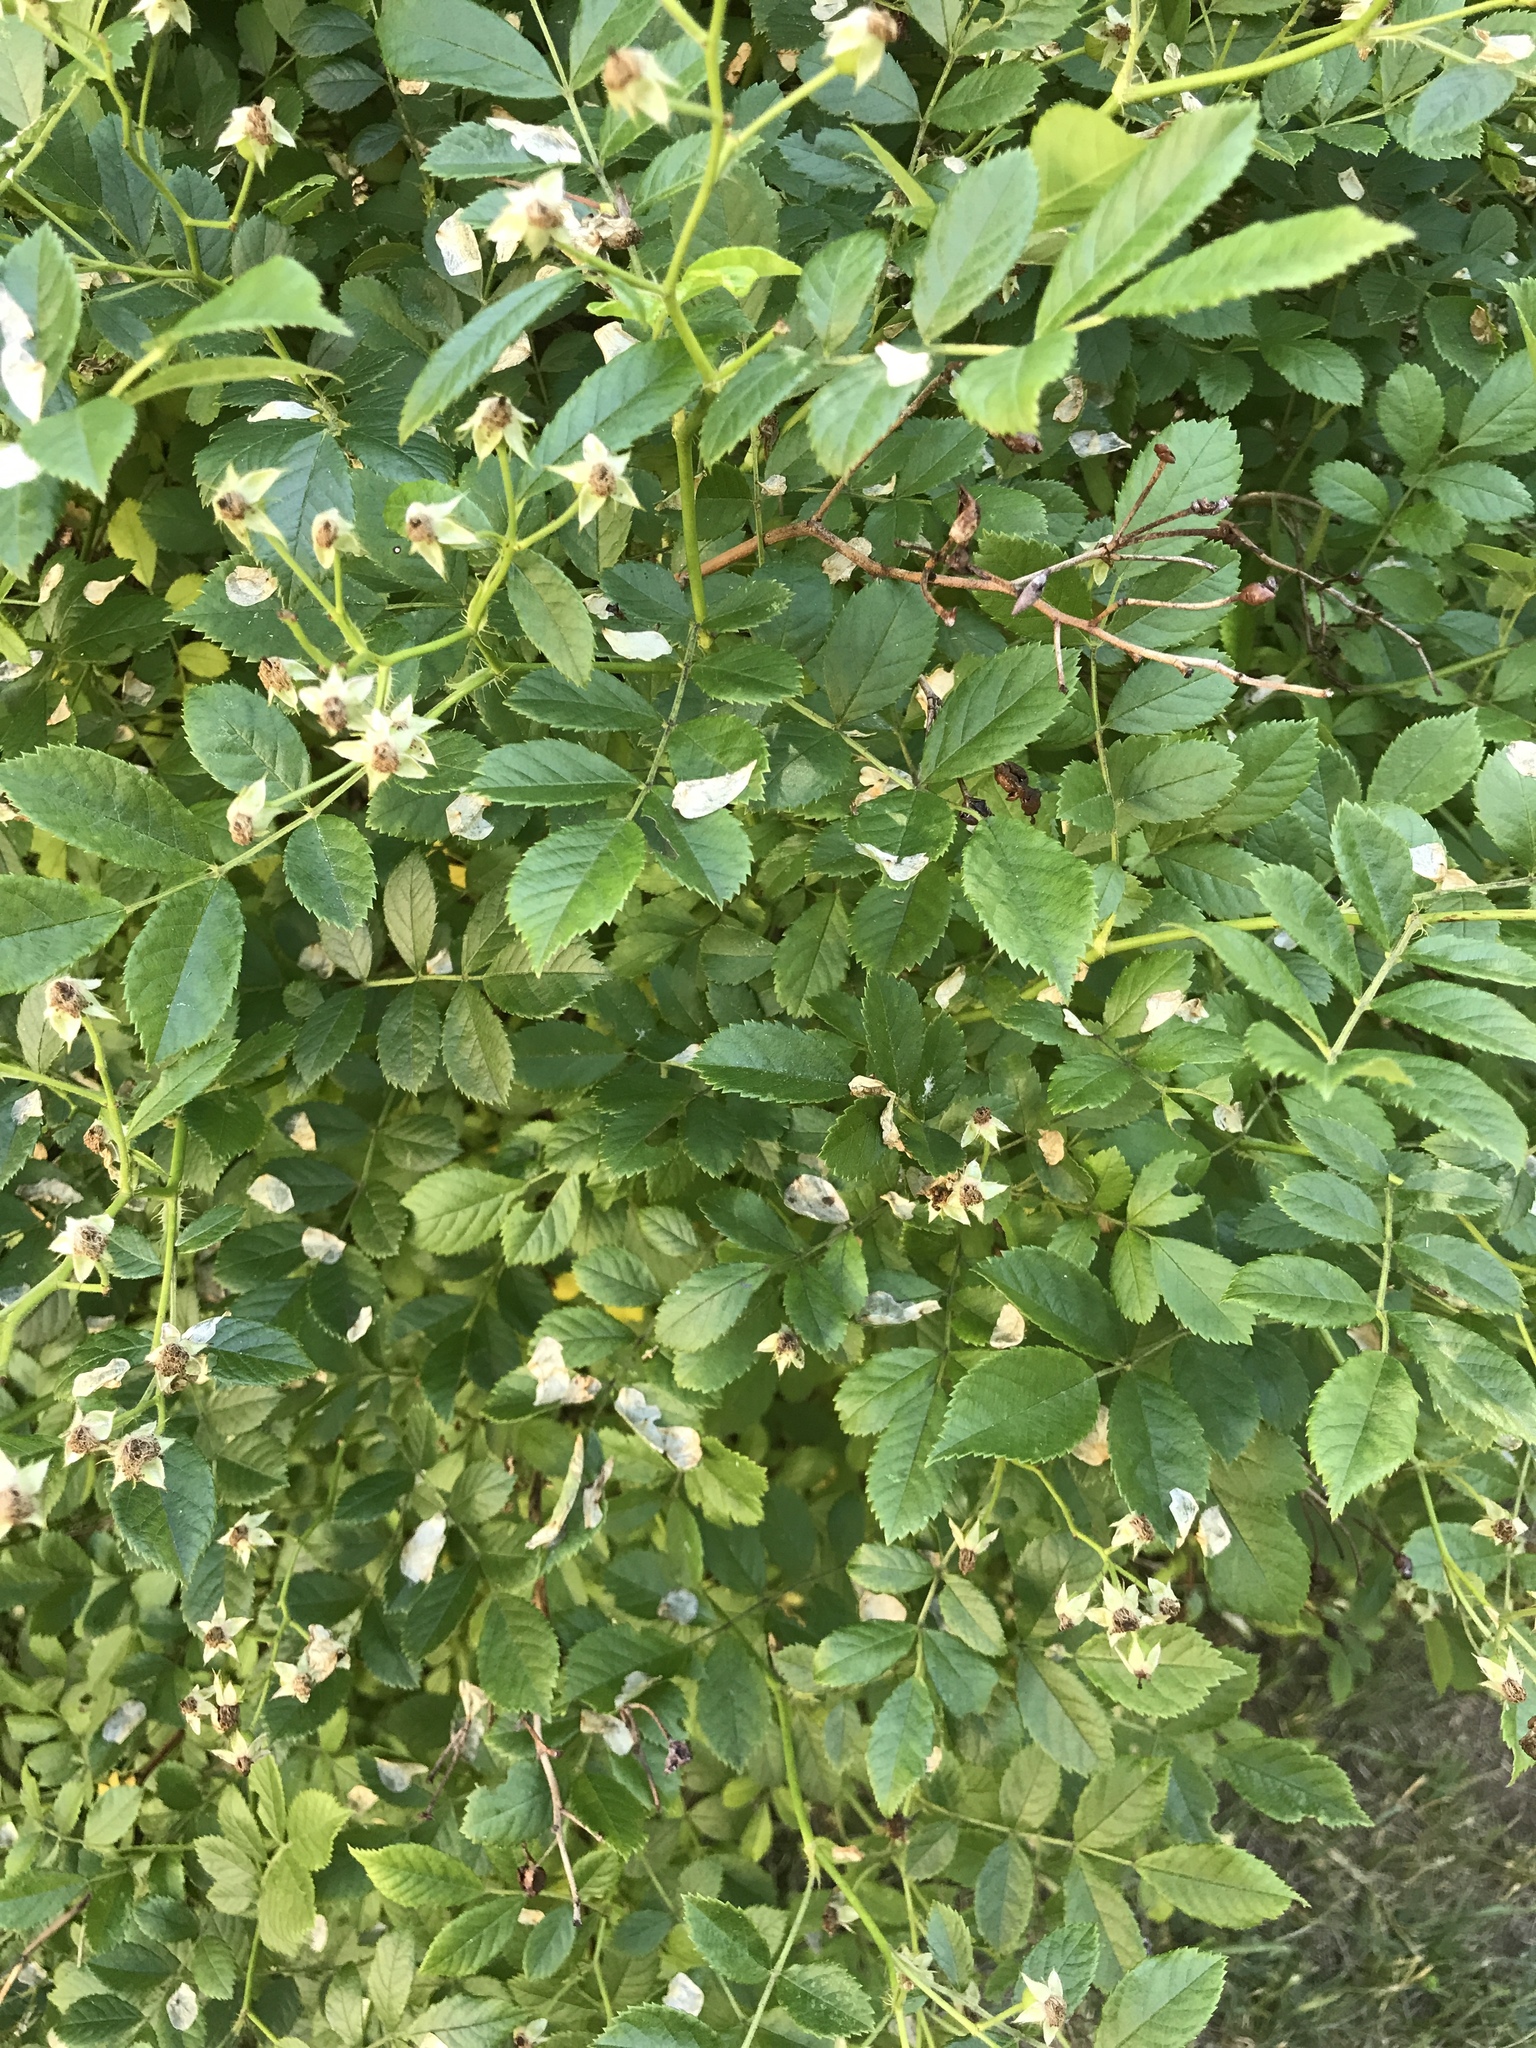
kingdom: Plantae
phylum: Tracheophyta
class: Magnoliopsida
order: Rosales
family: Rosaceae
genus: Rosa
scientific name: Rosa multiflora
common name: Multiflora rose
